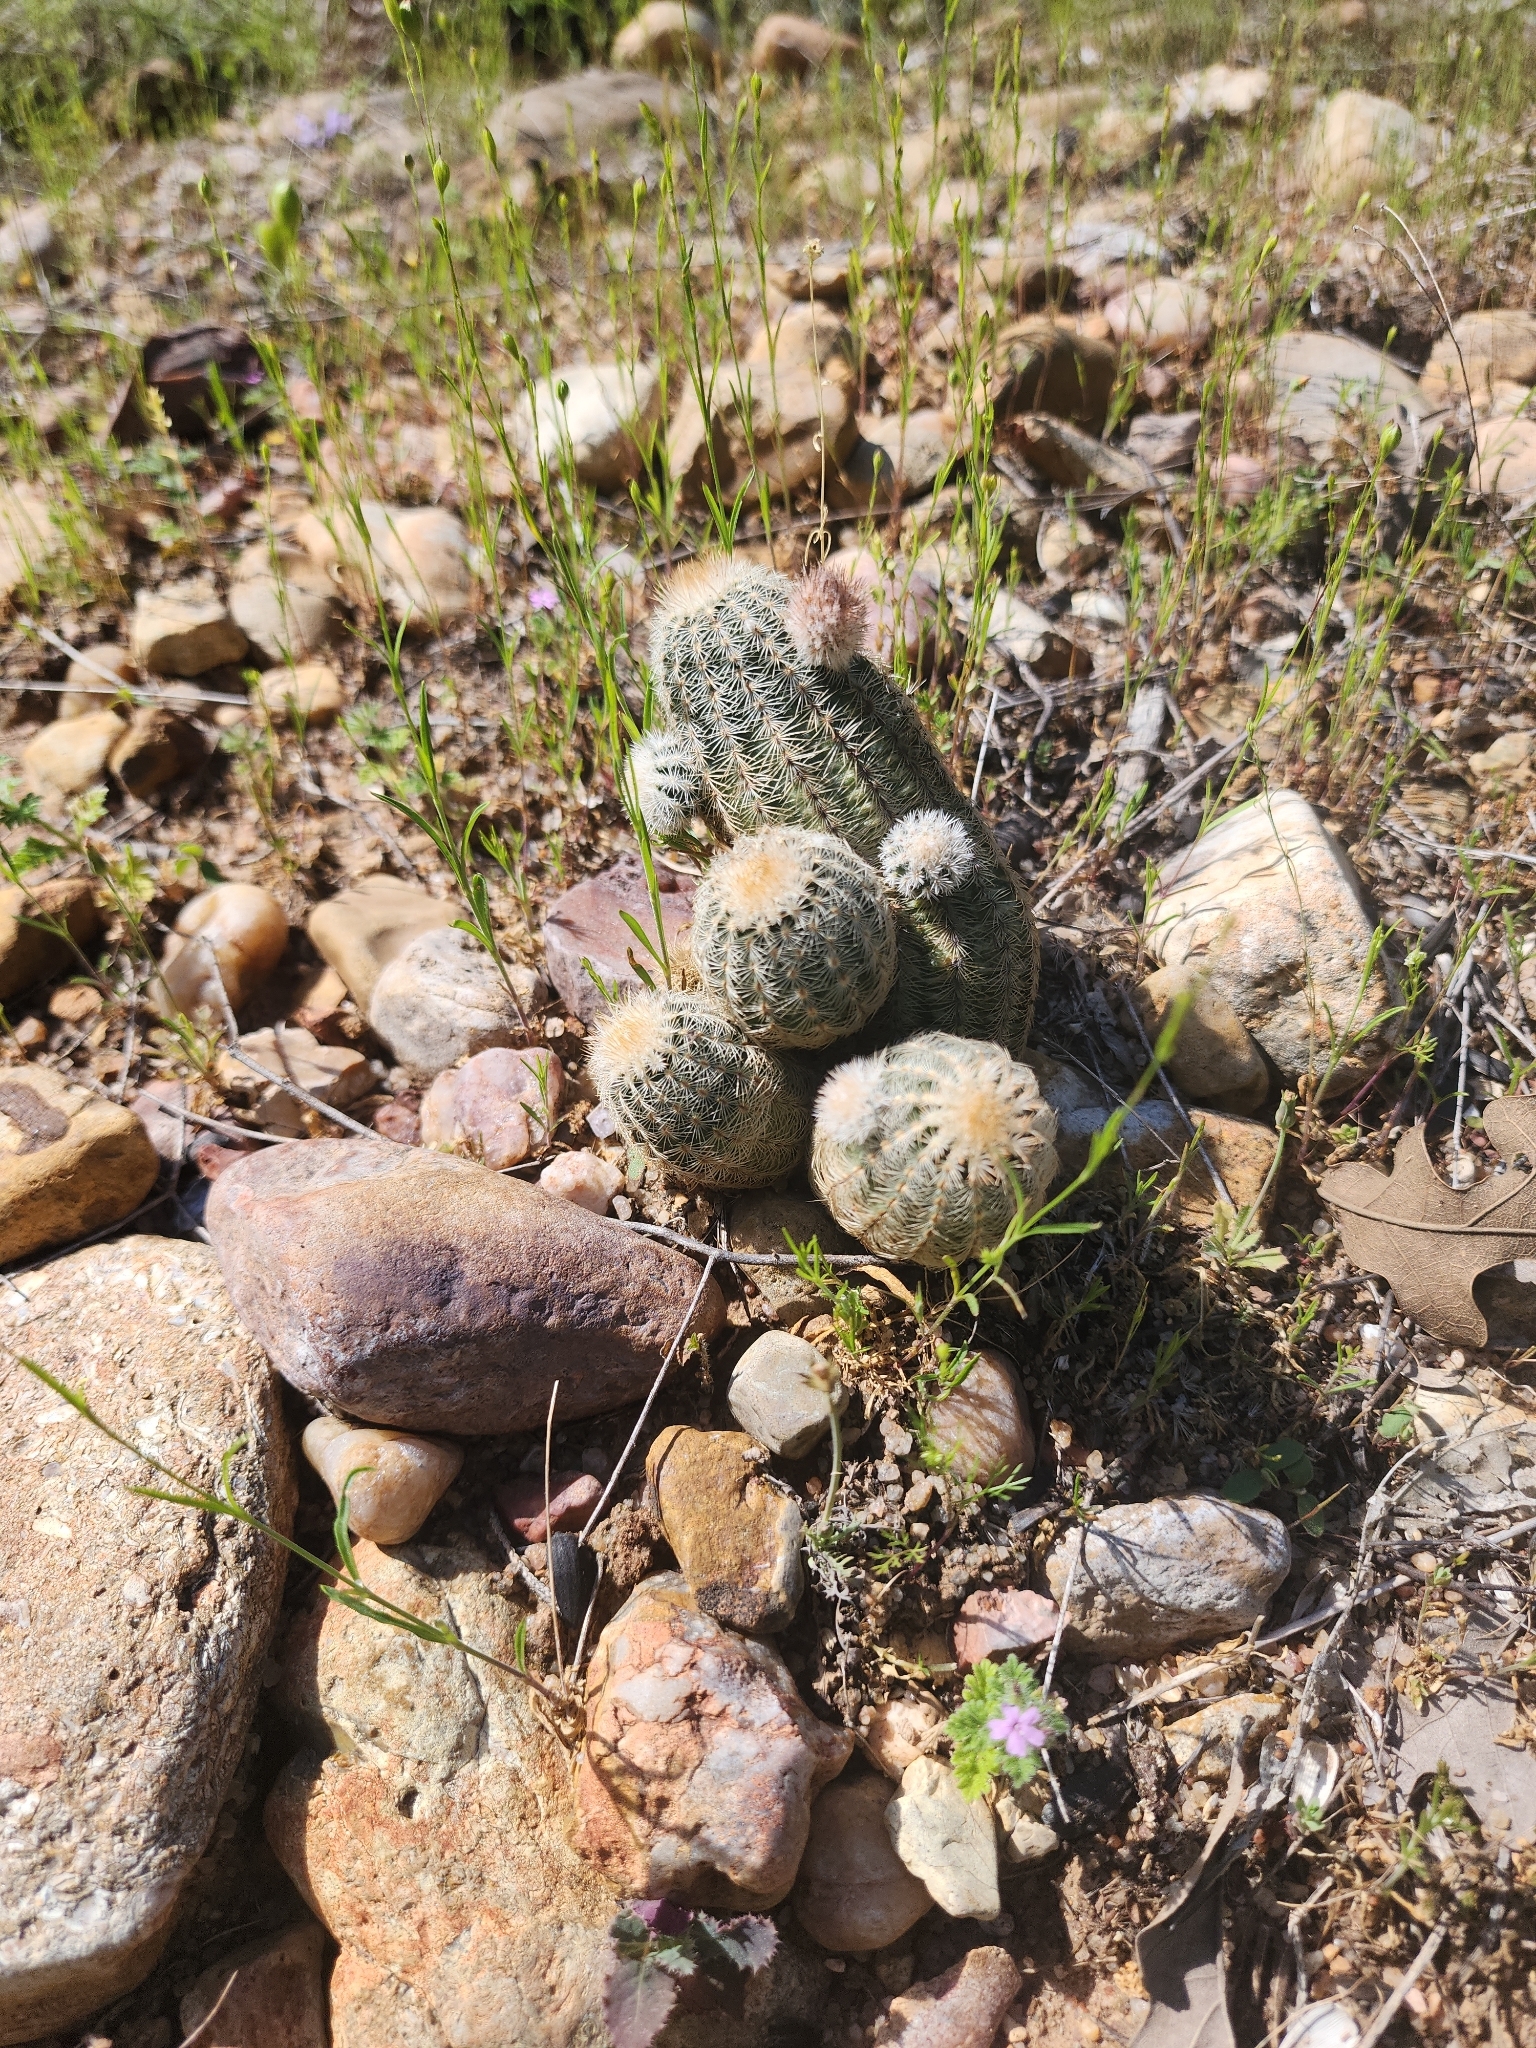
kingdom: Plantae
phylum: Tracheophyta
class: Magnoliopsida
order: Caryophyllales
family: Cactaceae
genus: Echinocereus
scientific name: Echinocereus reichenbachii
